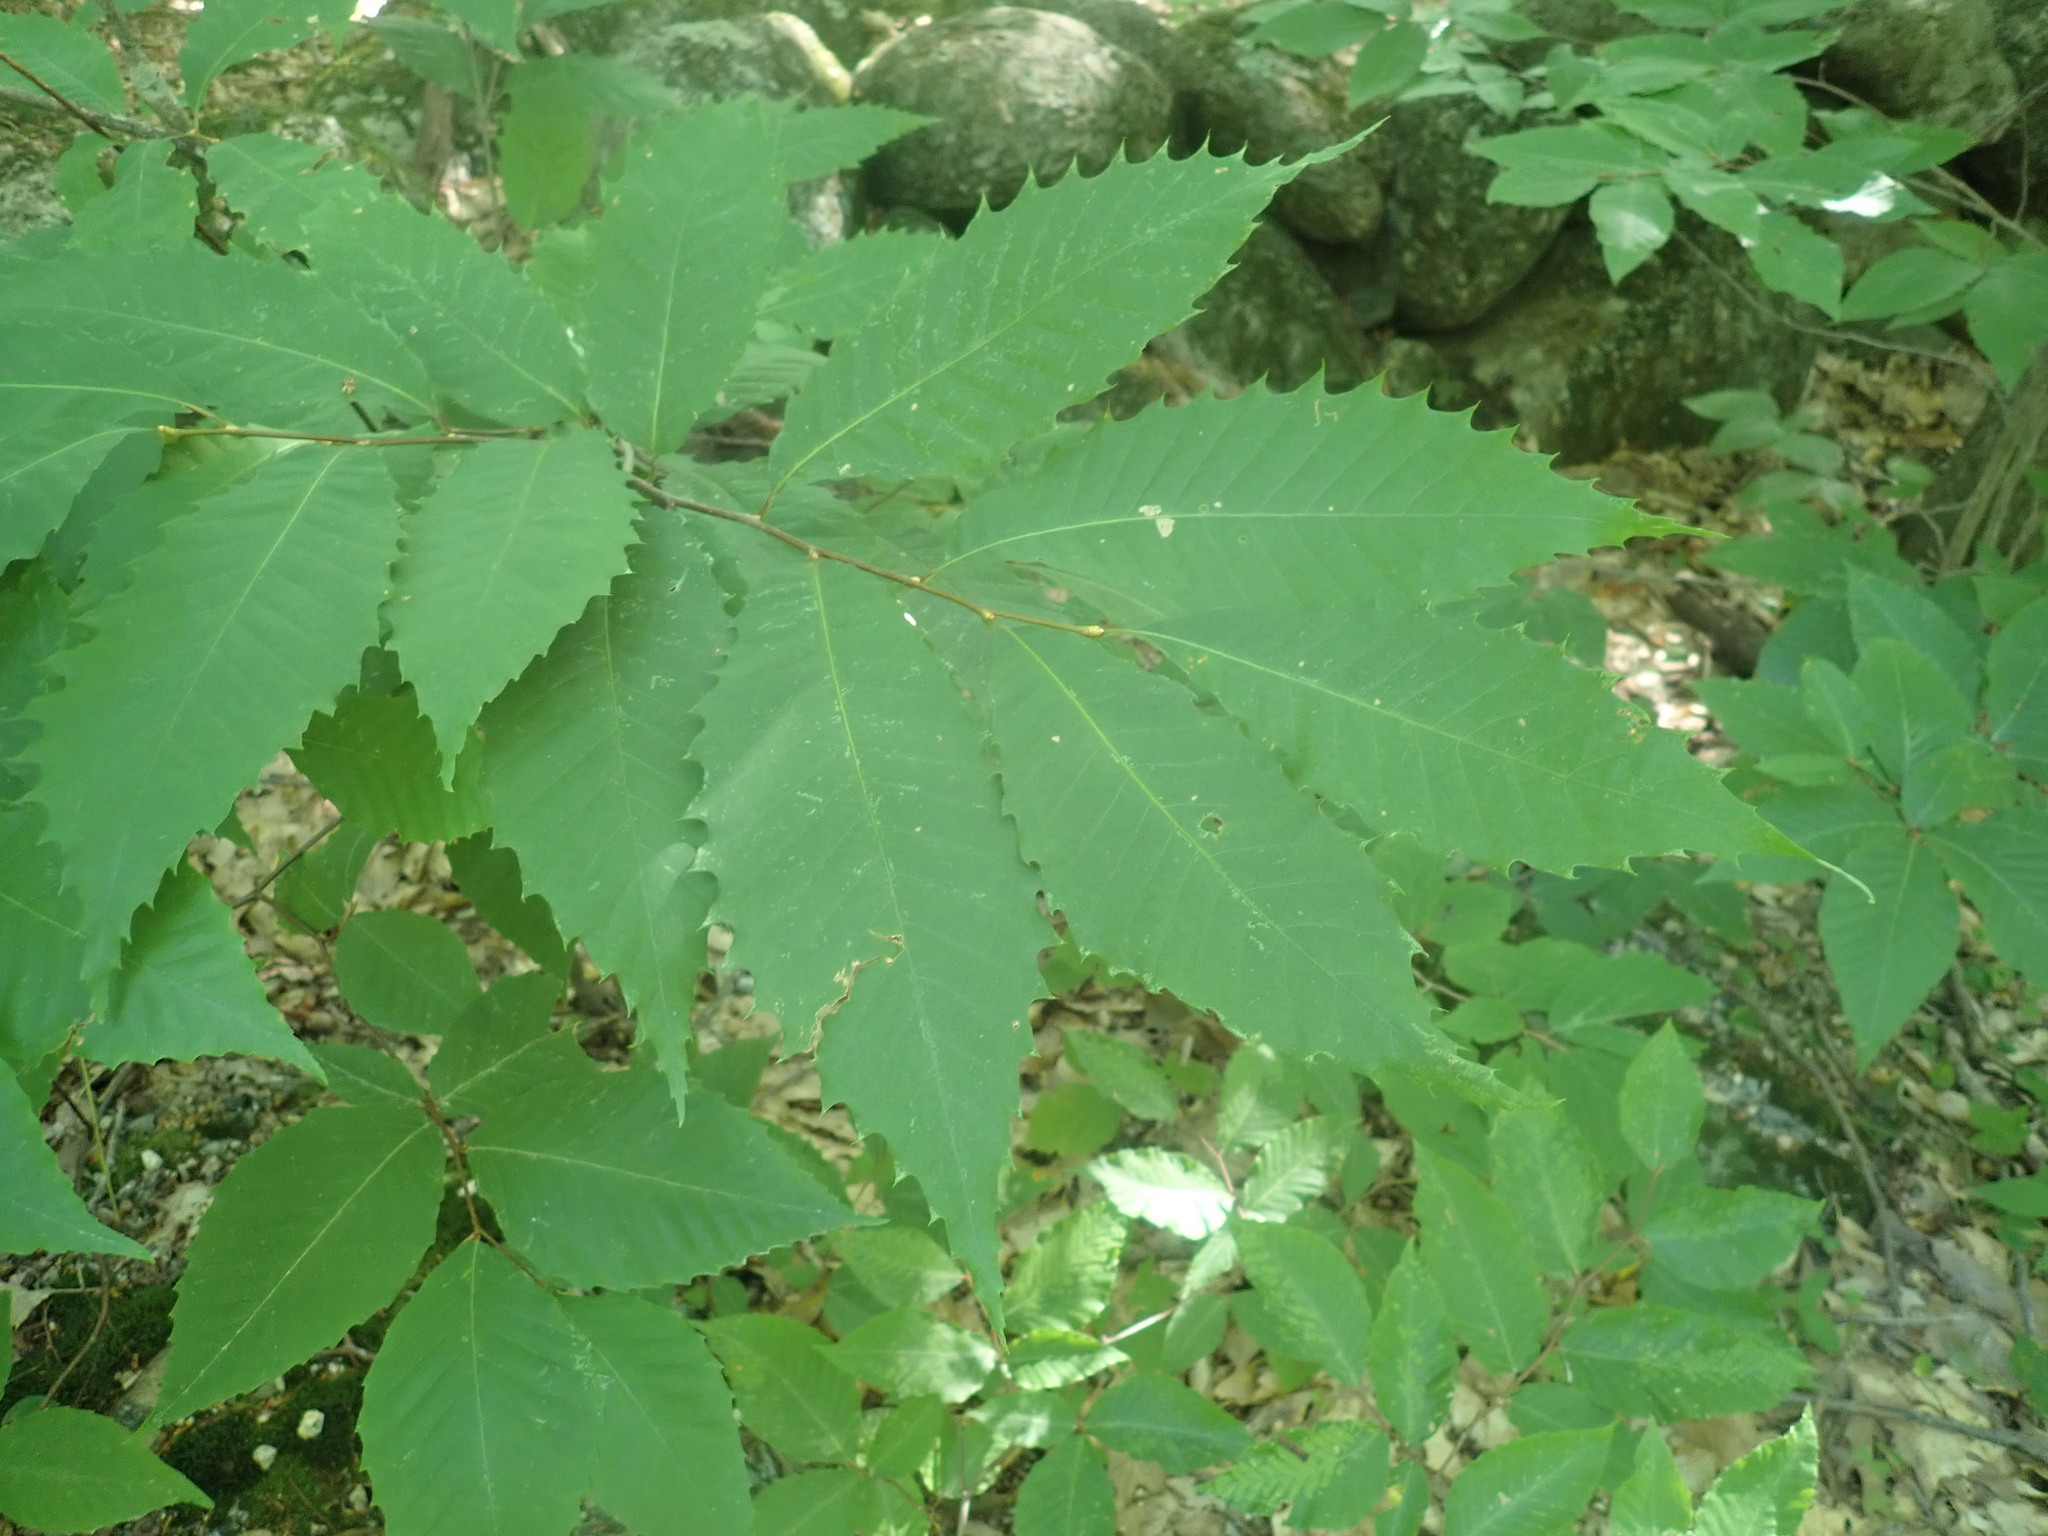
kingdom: Plantae
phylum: Tracheophyta
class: Magnoliopsida
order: Fagales
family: Fagaceae
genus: Castanea
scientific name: Castanea dentata
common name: American chestnut
